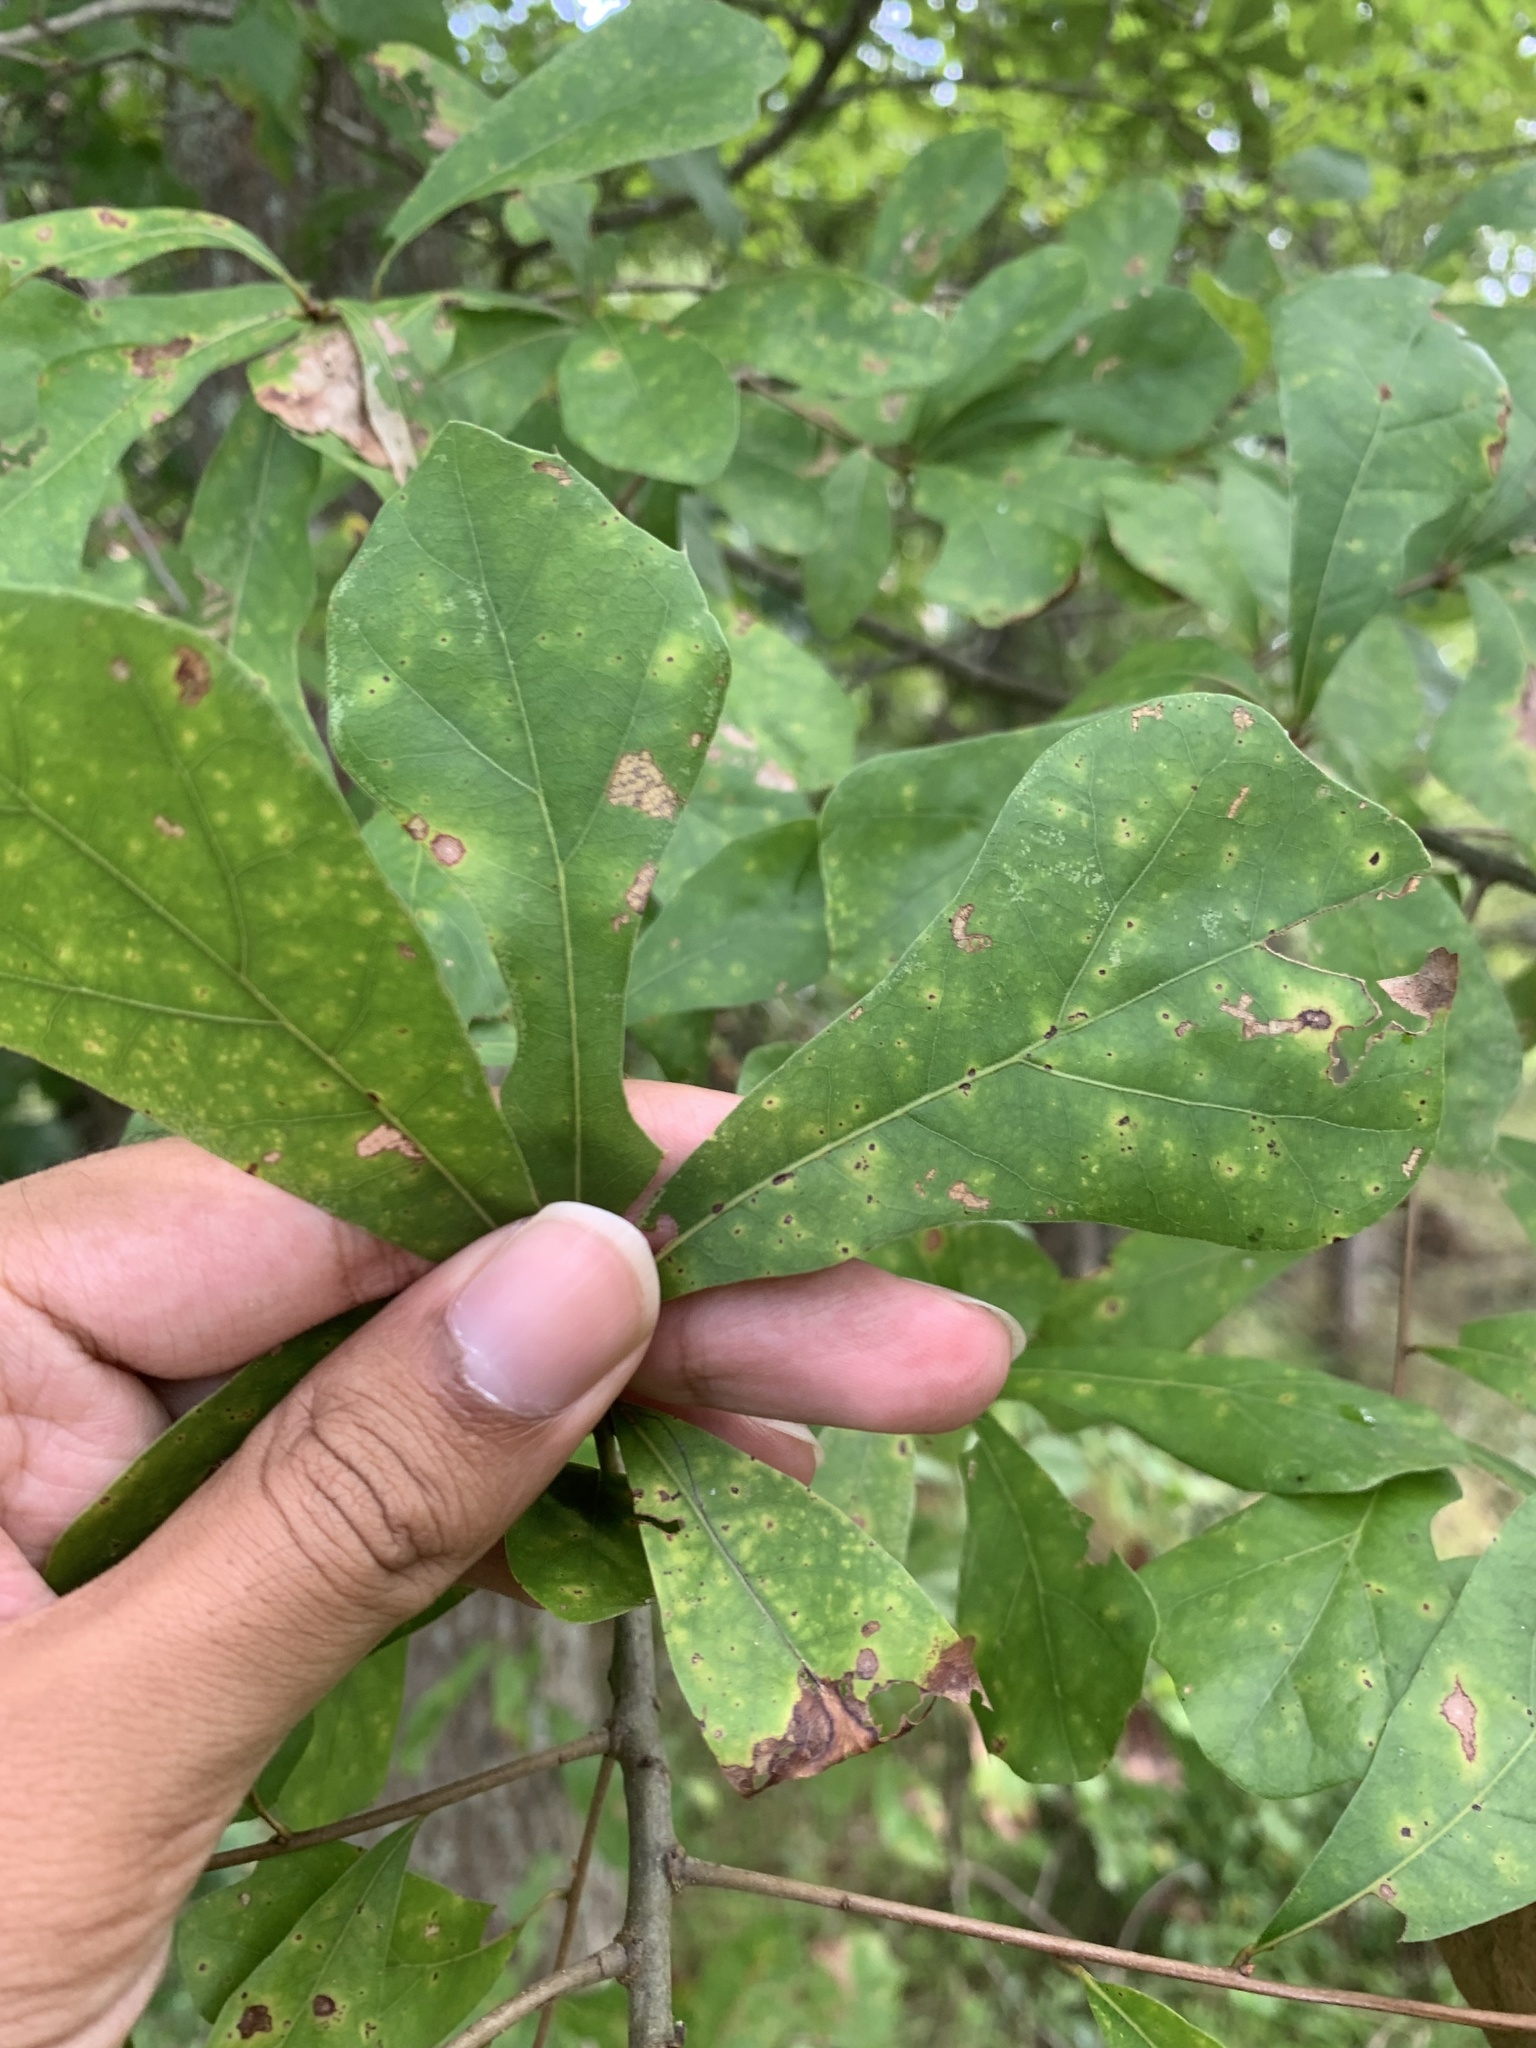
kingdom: Plantae
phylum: Tracheophyta
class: Magnoliopsida
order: Fagales
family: Fagaceae
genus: Quercus
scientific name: Quercus nigra
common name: Water oak
